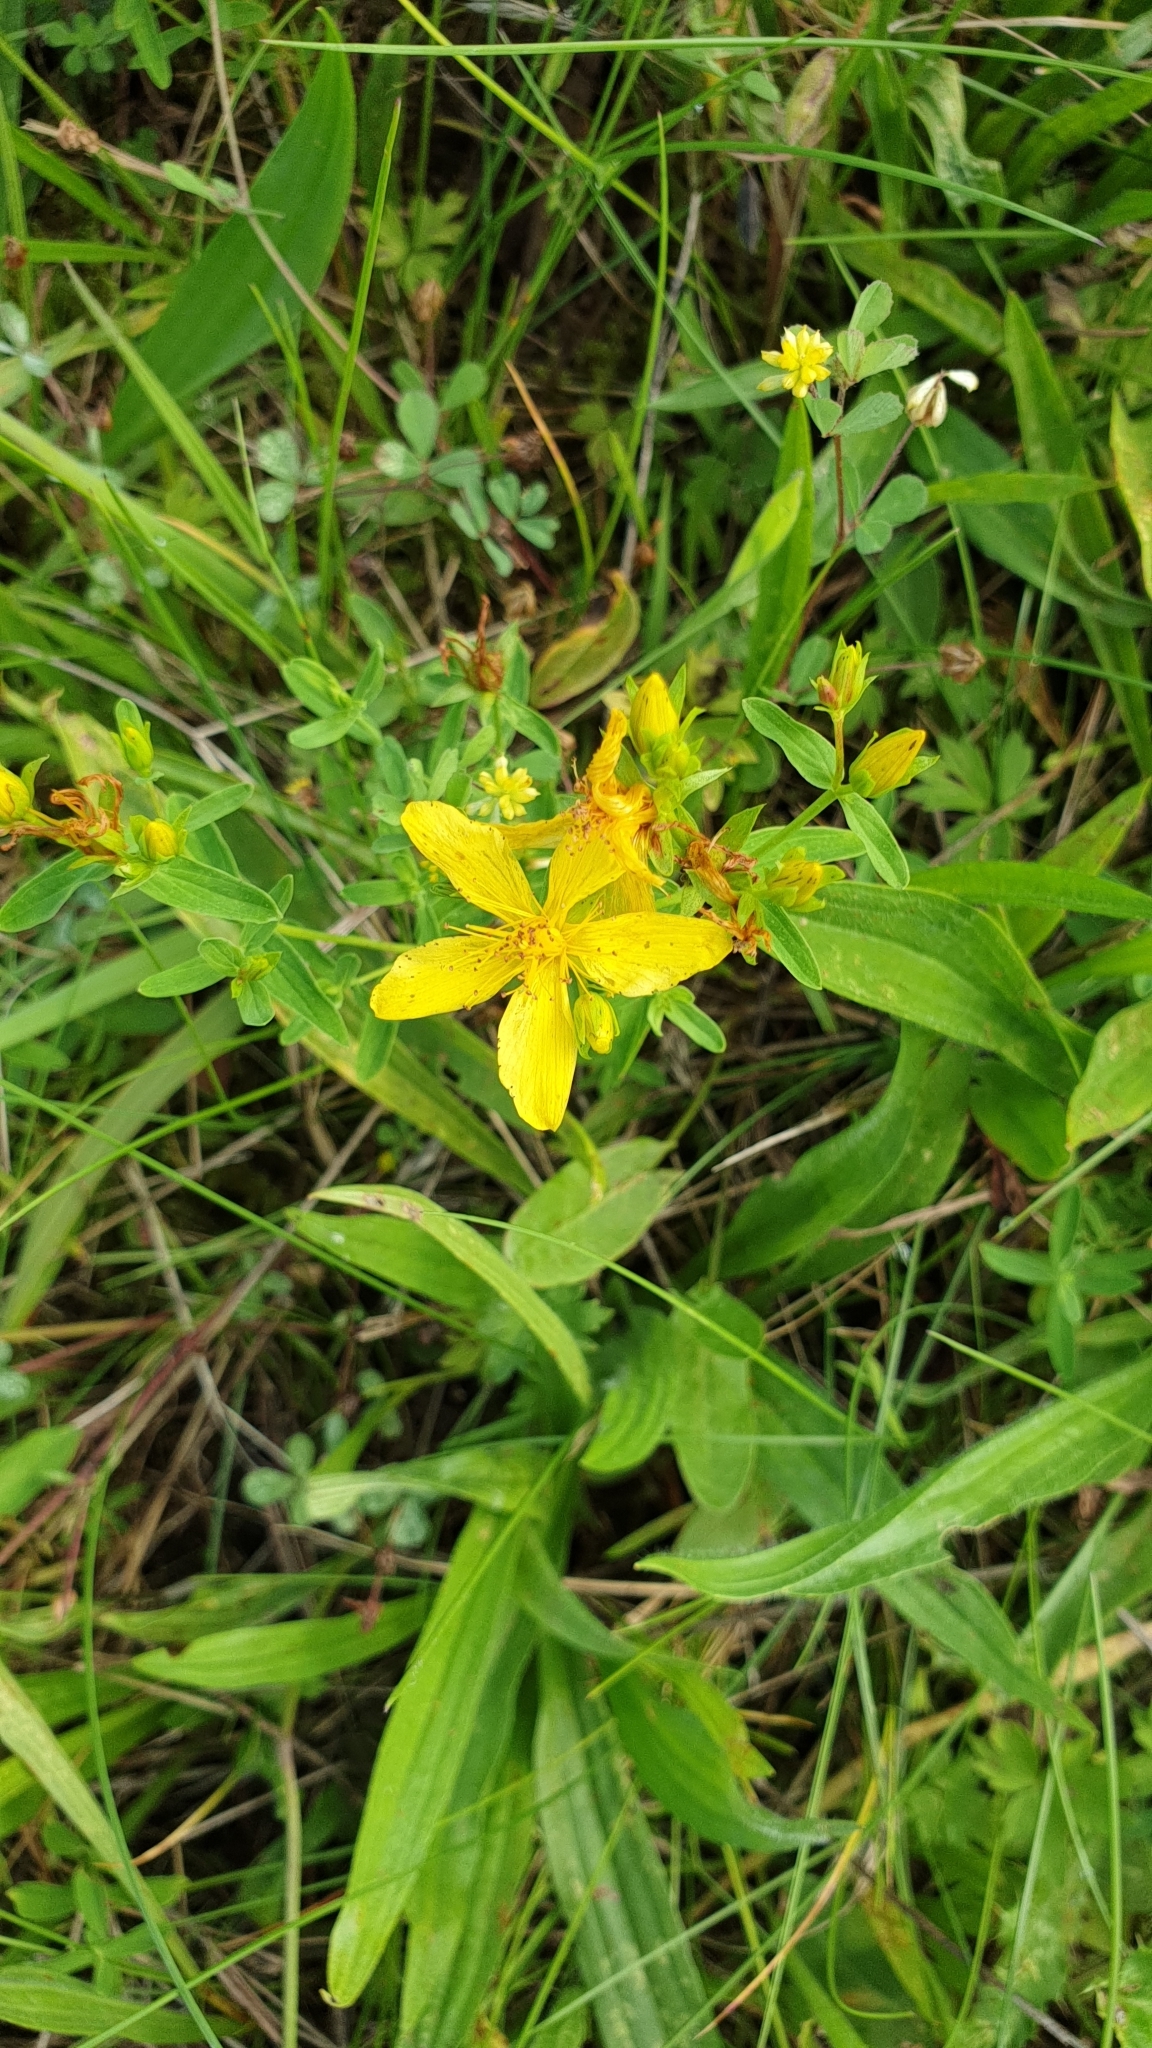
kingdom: Plantae
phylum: Tracheophyta
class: Magnoliopsida
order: Malpighiales
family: Hypericaceae
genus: Hypericum
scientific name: Hypericum perforatum
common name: Common st. johnswort
